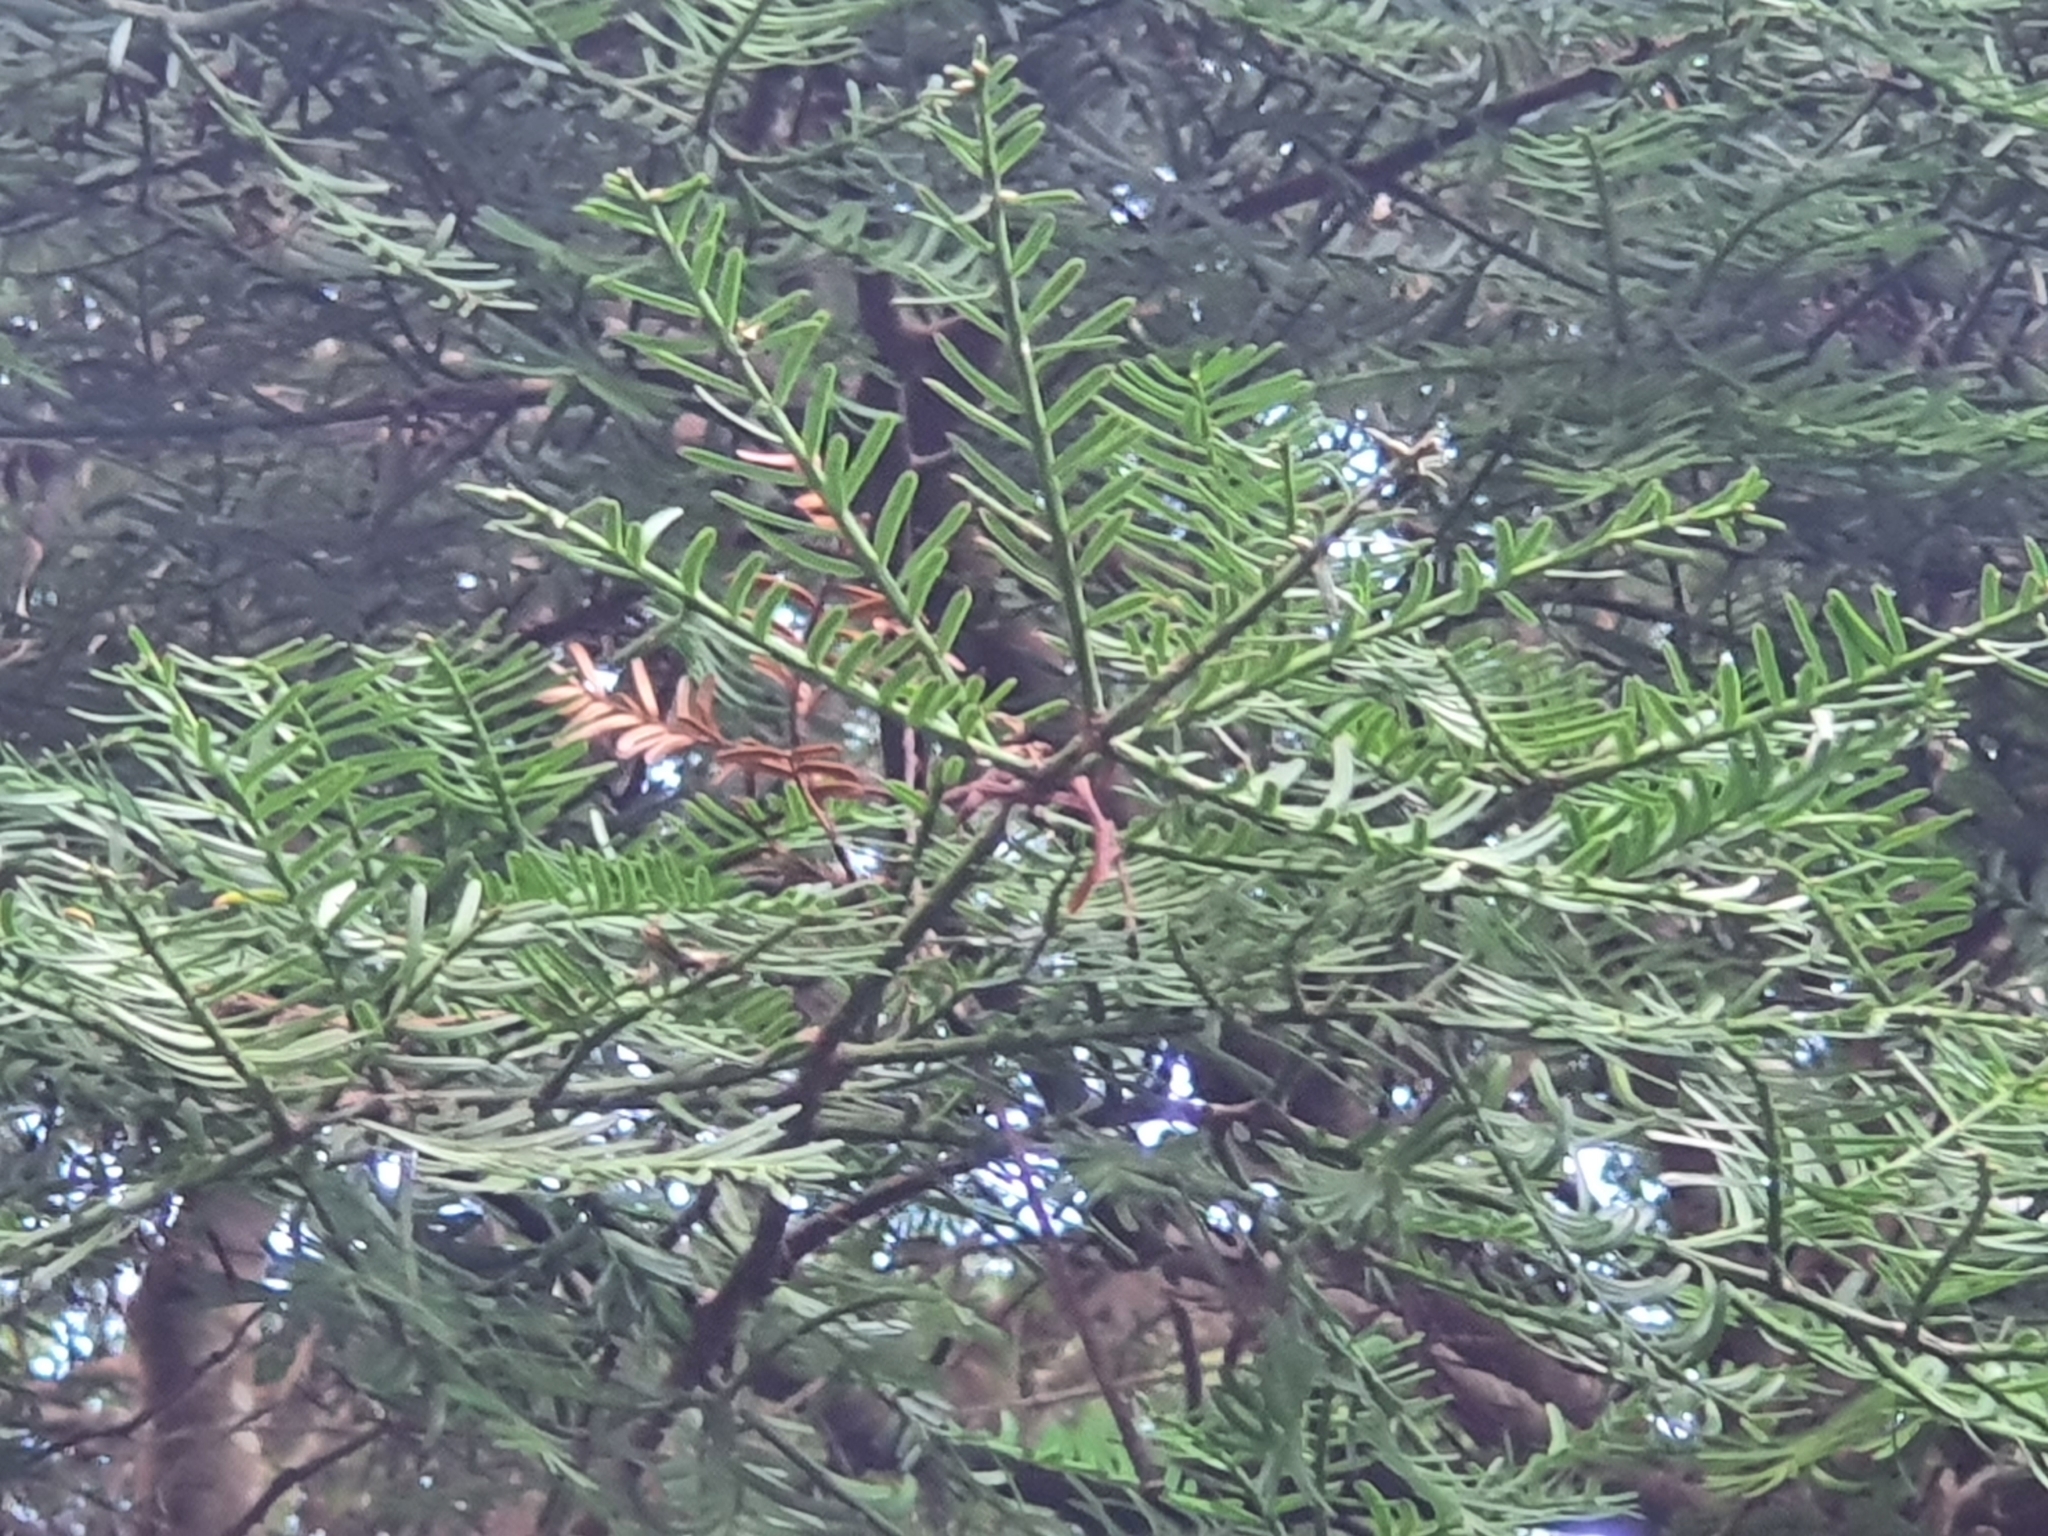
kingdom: Plantae
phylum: Tracheophyta
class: Pinopsida
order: Pinales
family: Podocarpaceae
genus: Prumnopitys
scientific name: Prumnopitys taxifolia
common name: Matai
